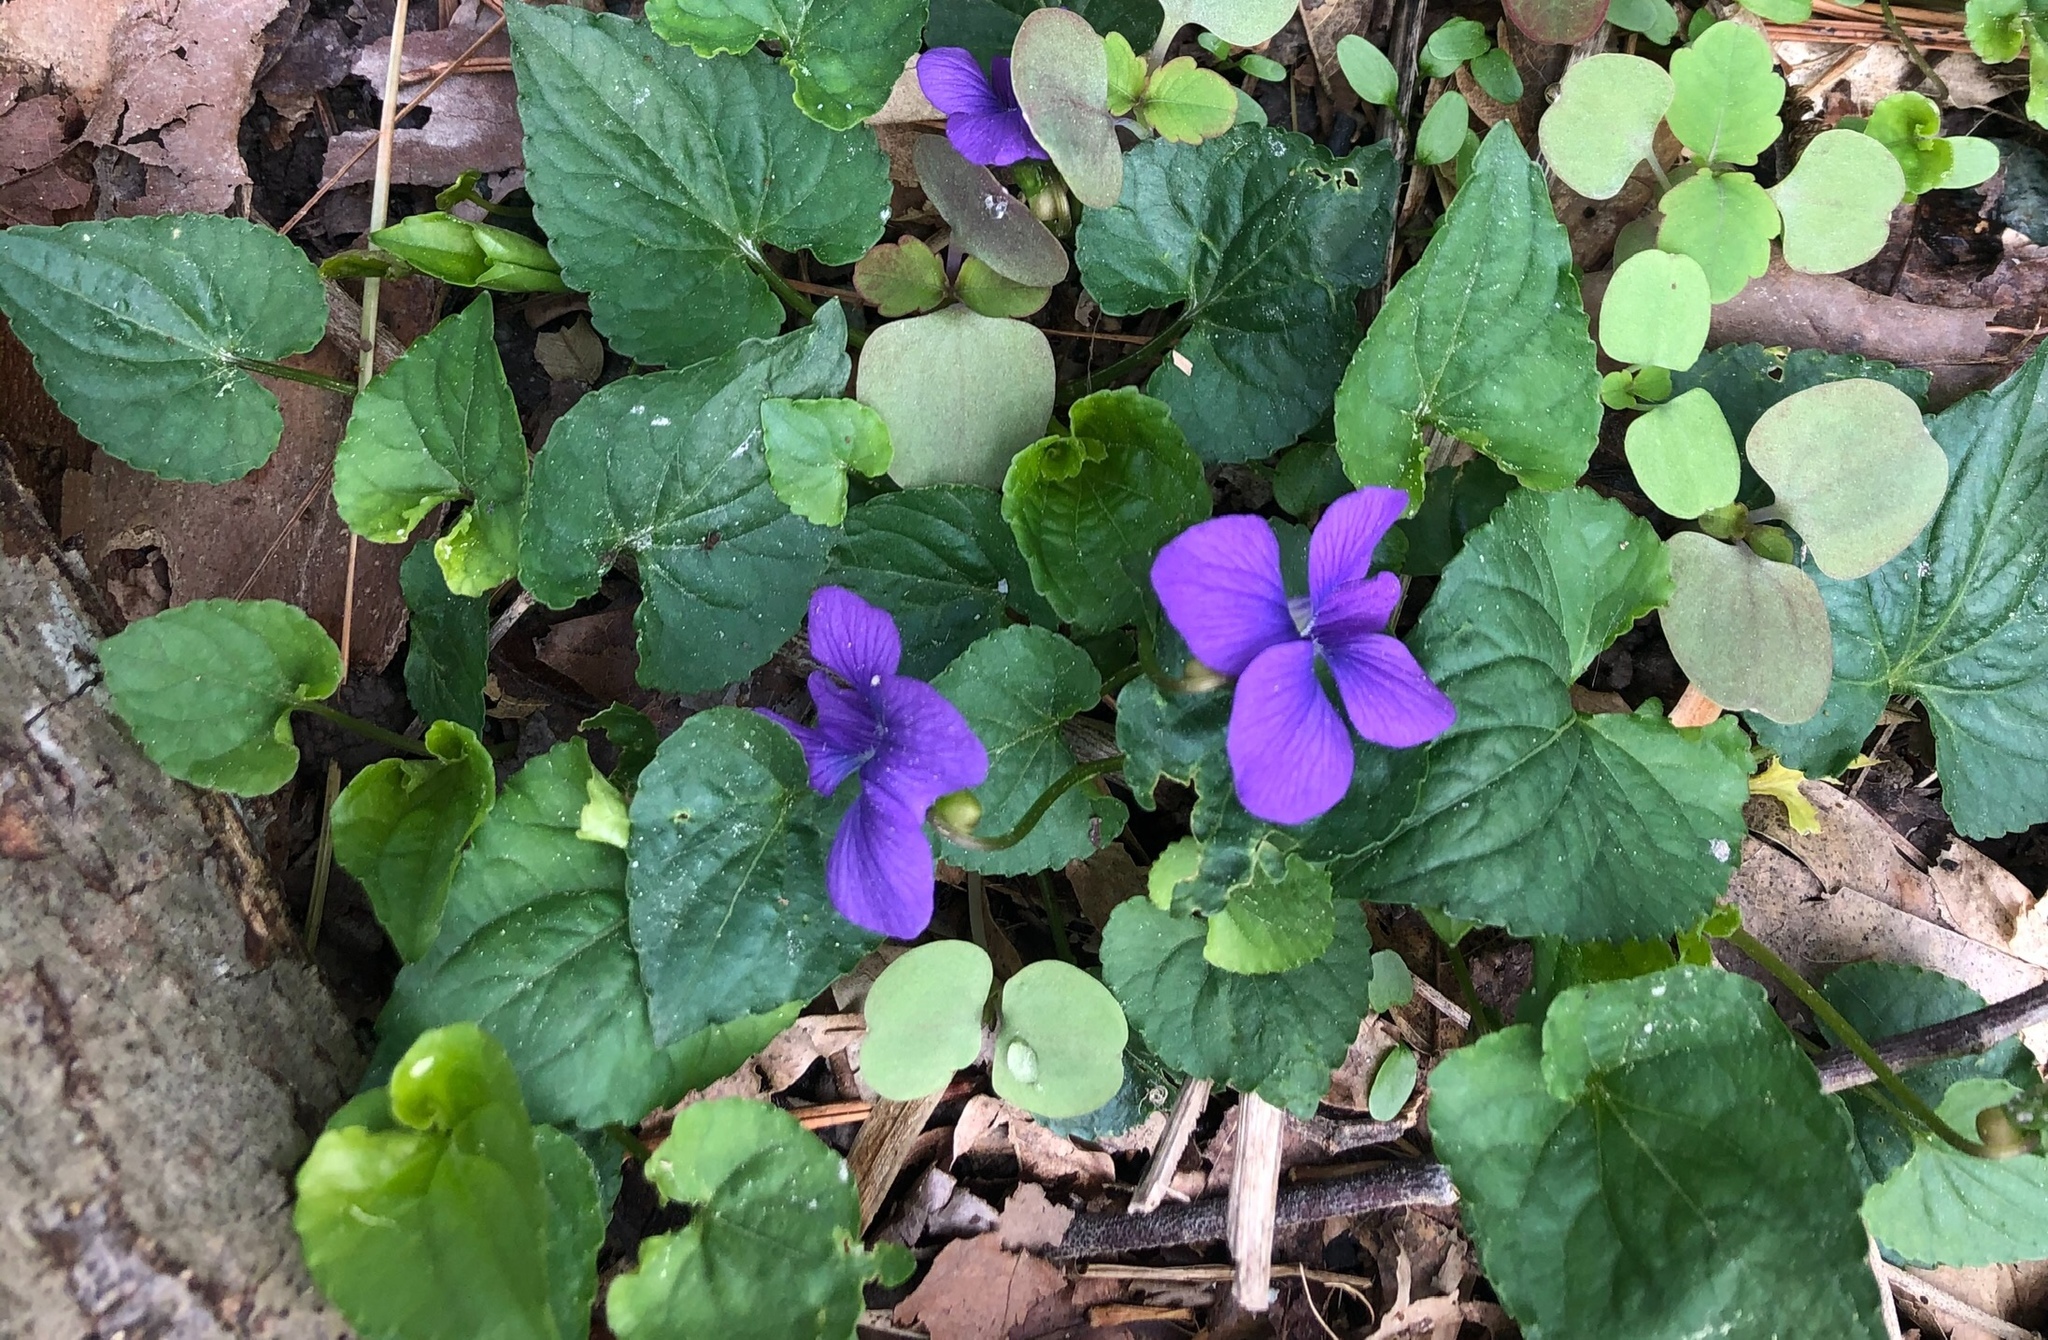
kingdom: Plantae
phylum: Tracheophyta
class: Magnoliopsida
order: Malpighiales
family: Violaceae
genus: Viola
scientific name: Viola sororia
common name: Dooryard violet
